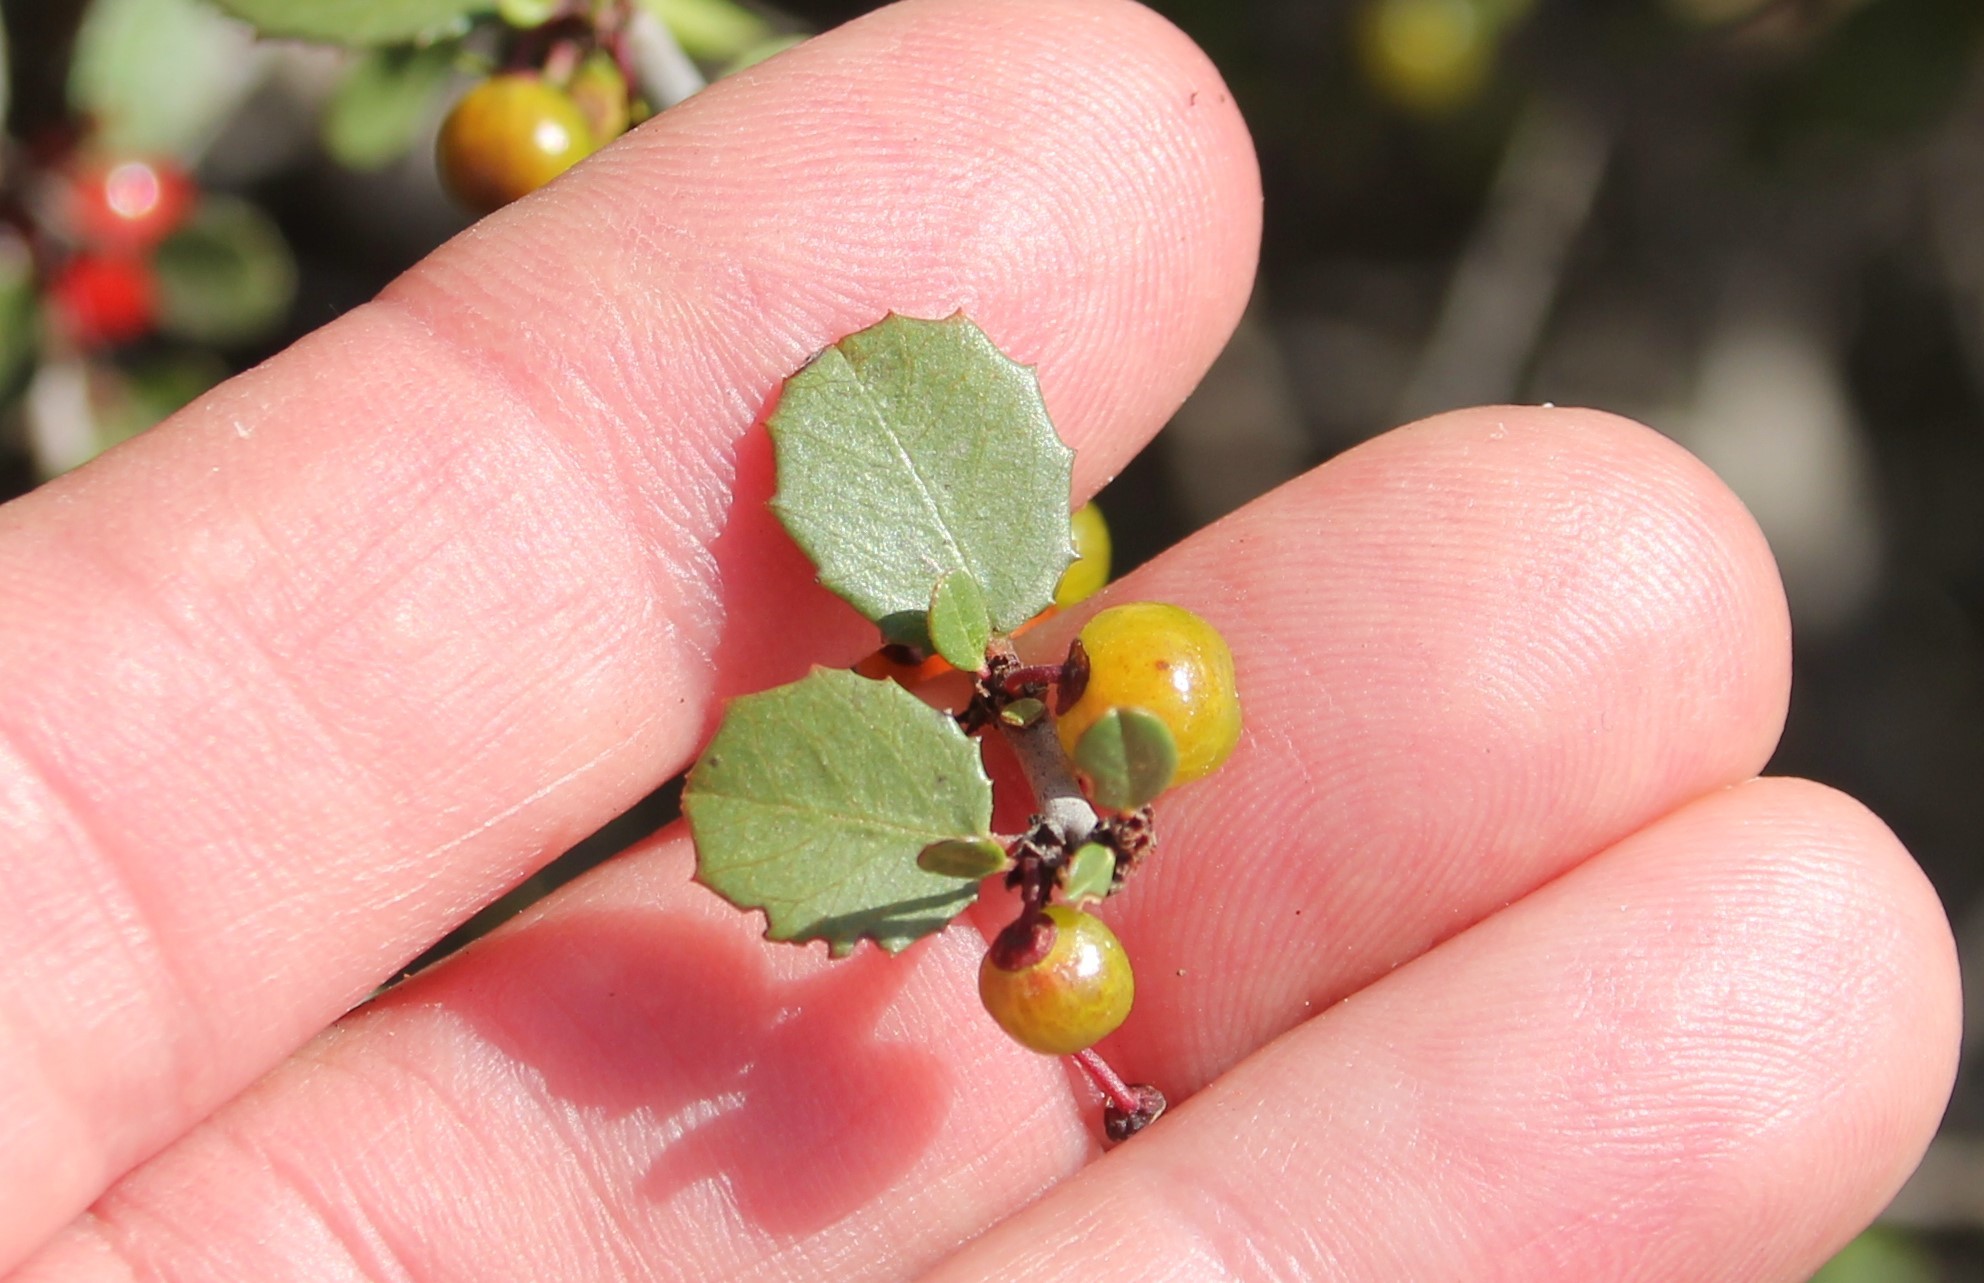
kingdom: Plantae
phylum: Tracheophyta
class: Magnoliopsida
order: Rosales
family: Rhamnaceae
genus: Endotropis
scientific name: Endotropis crocea
